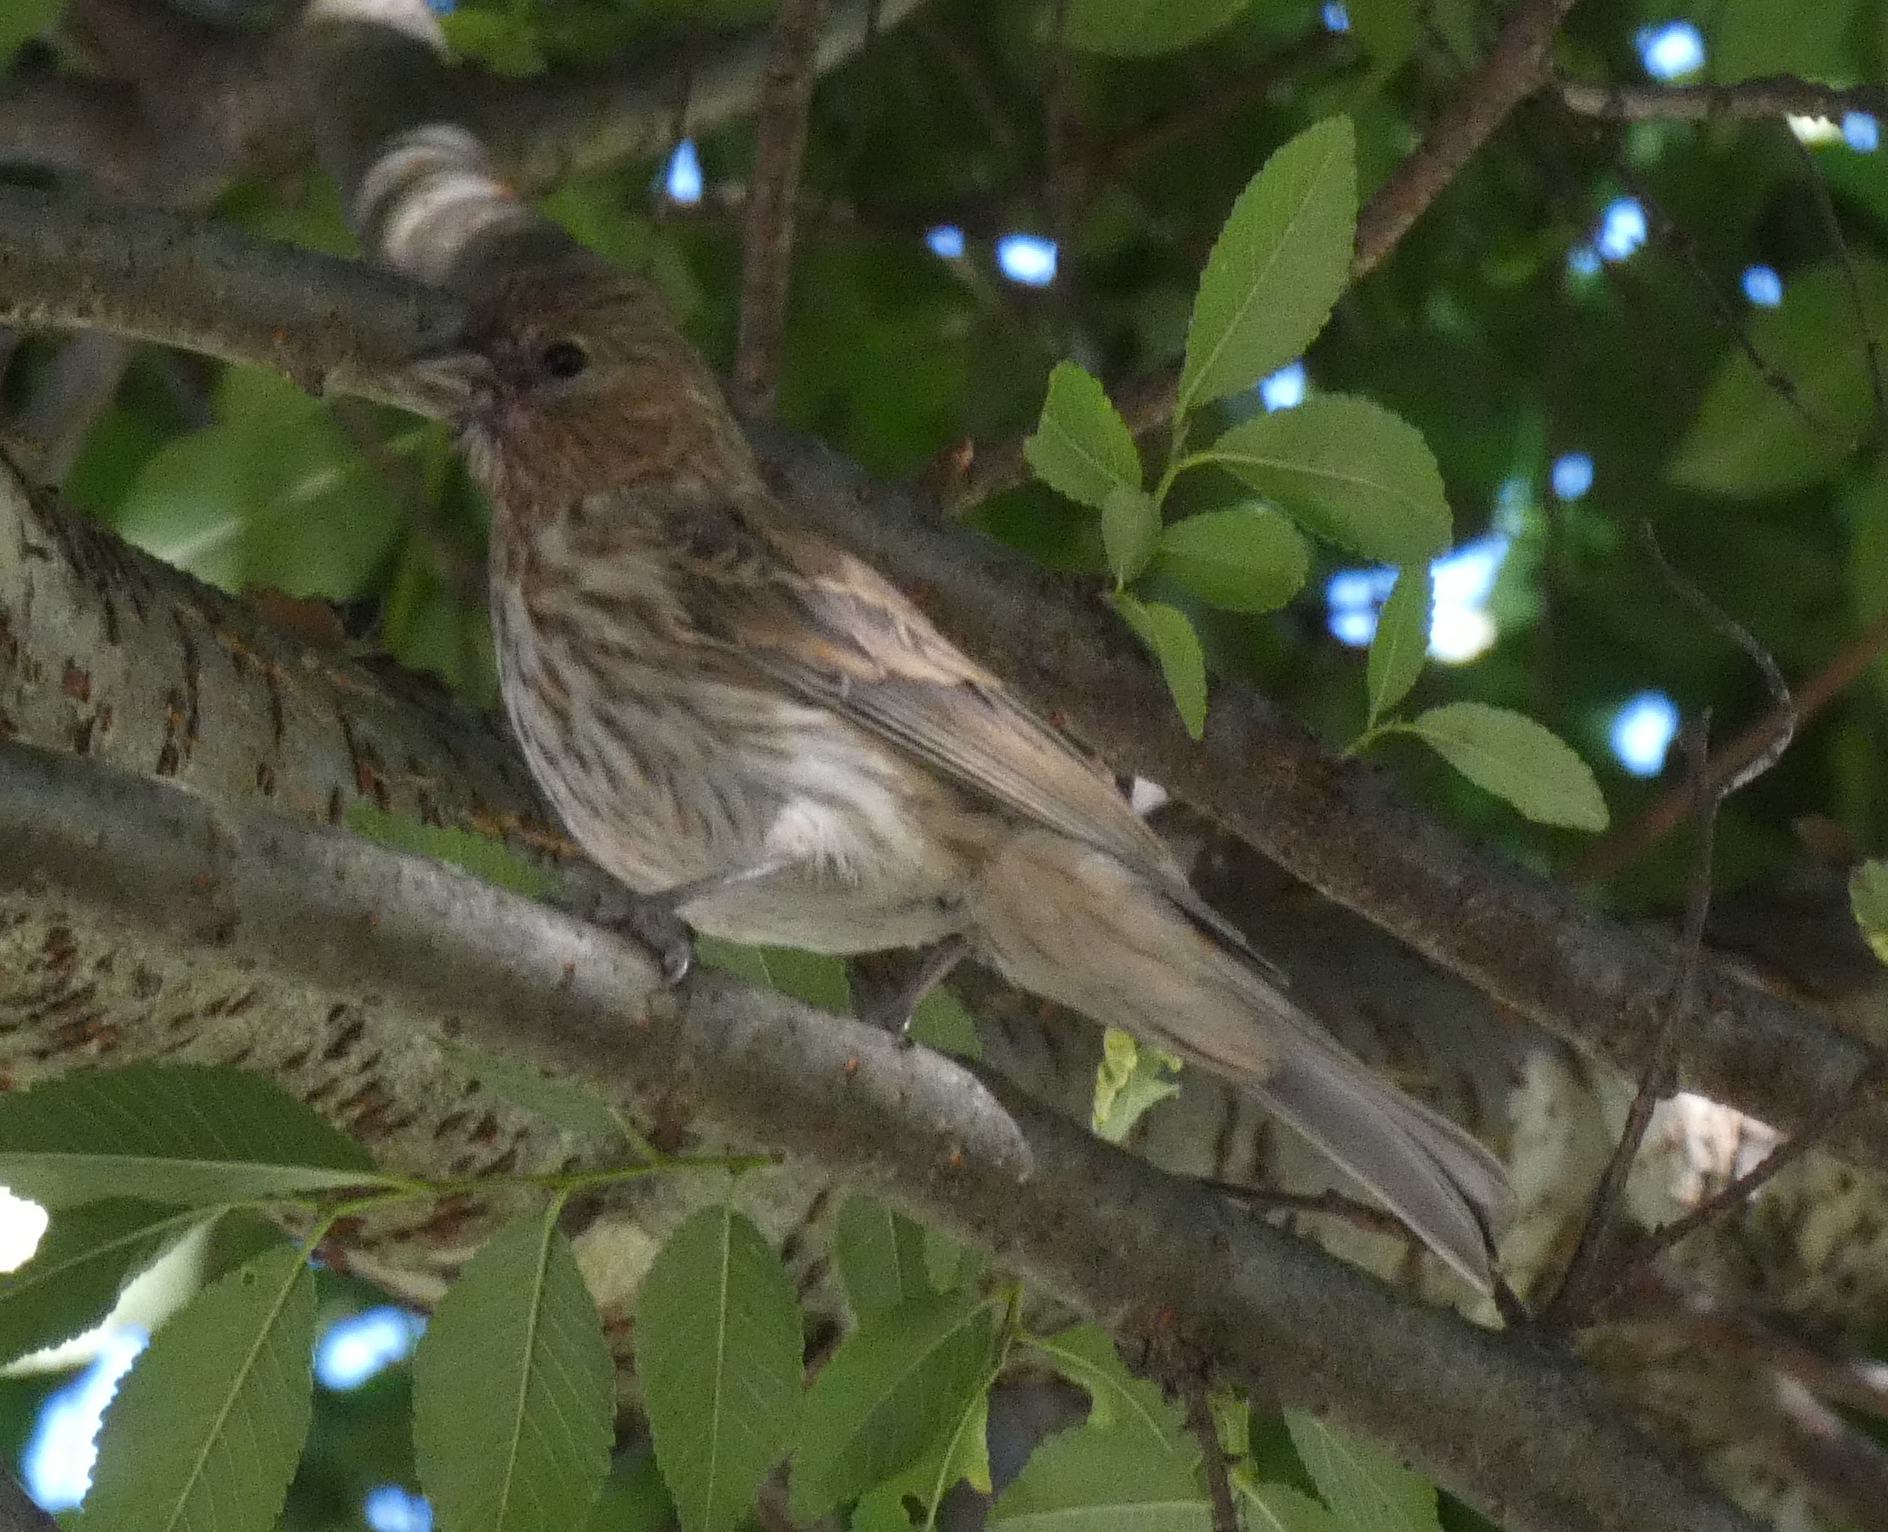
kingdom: Animalia
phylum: Chordata
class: Aves
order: Passeriformes
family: Fringillidae
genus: Haemorhous
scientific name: Haemorhous mexicanus
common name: House finch
